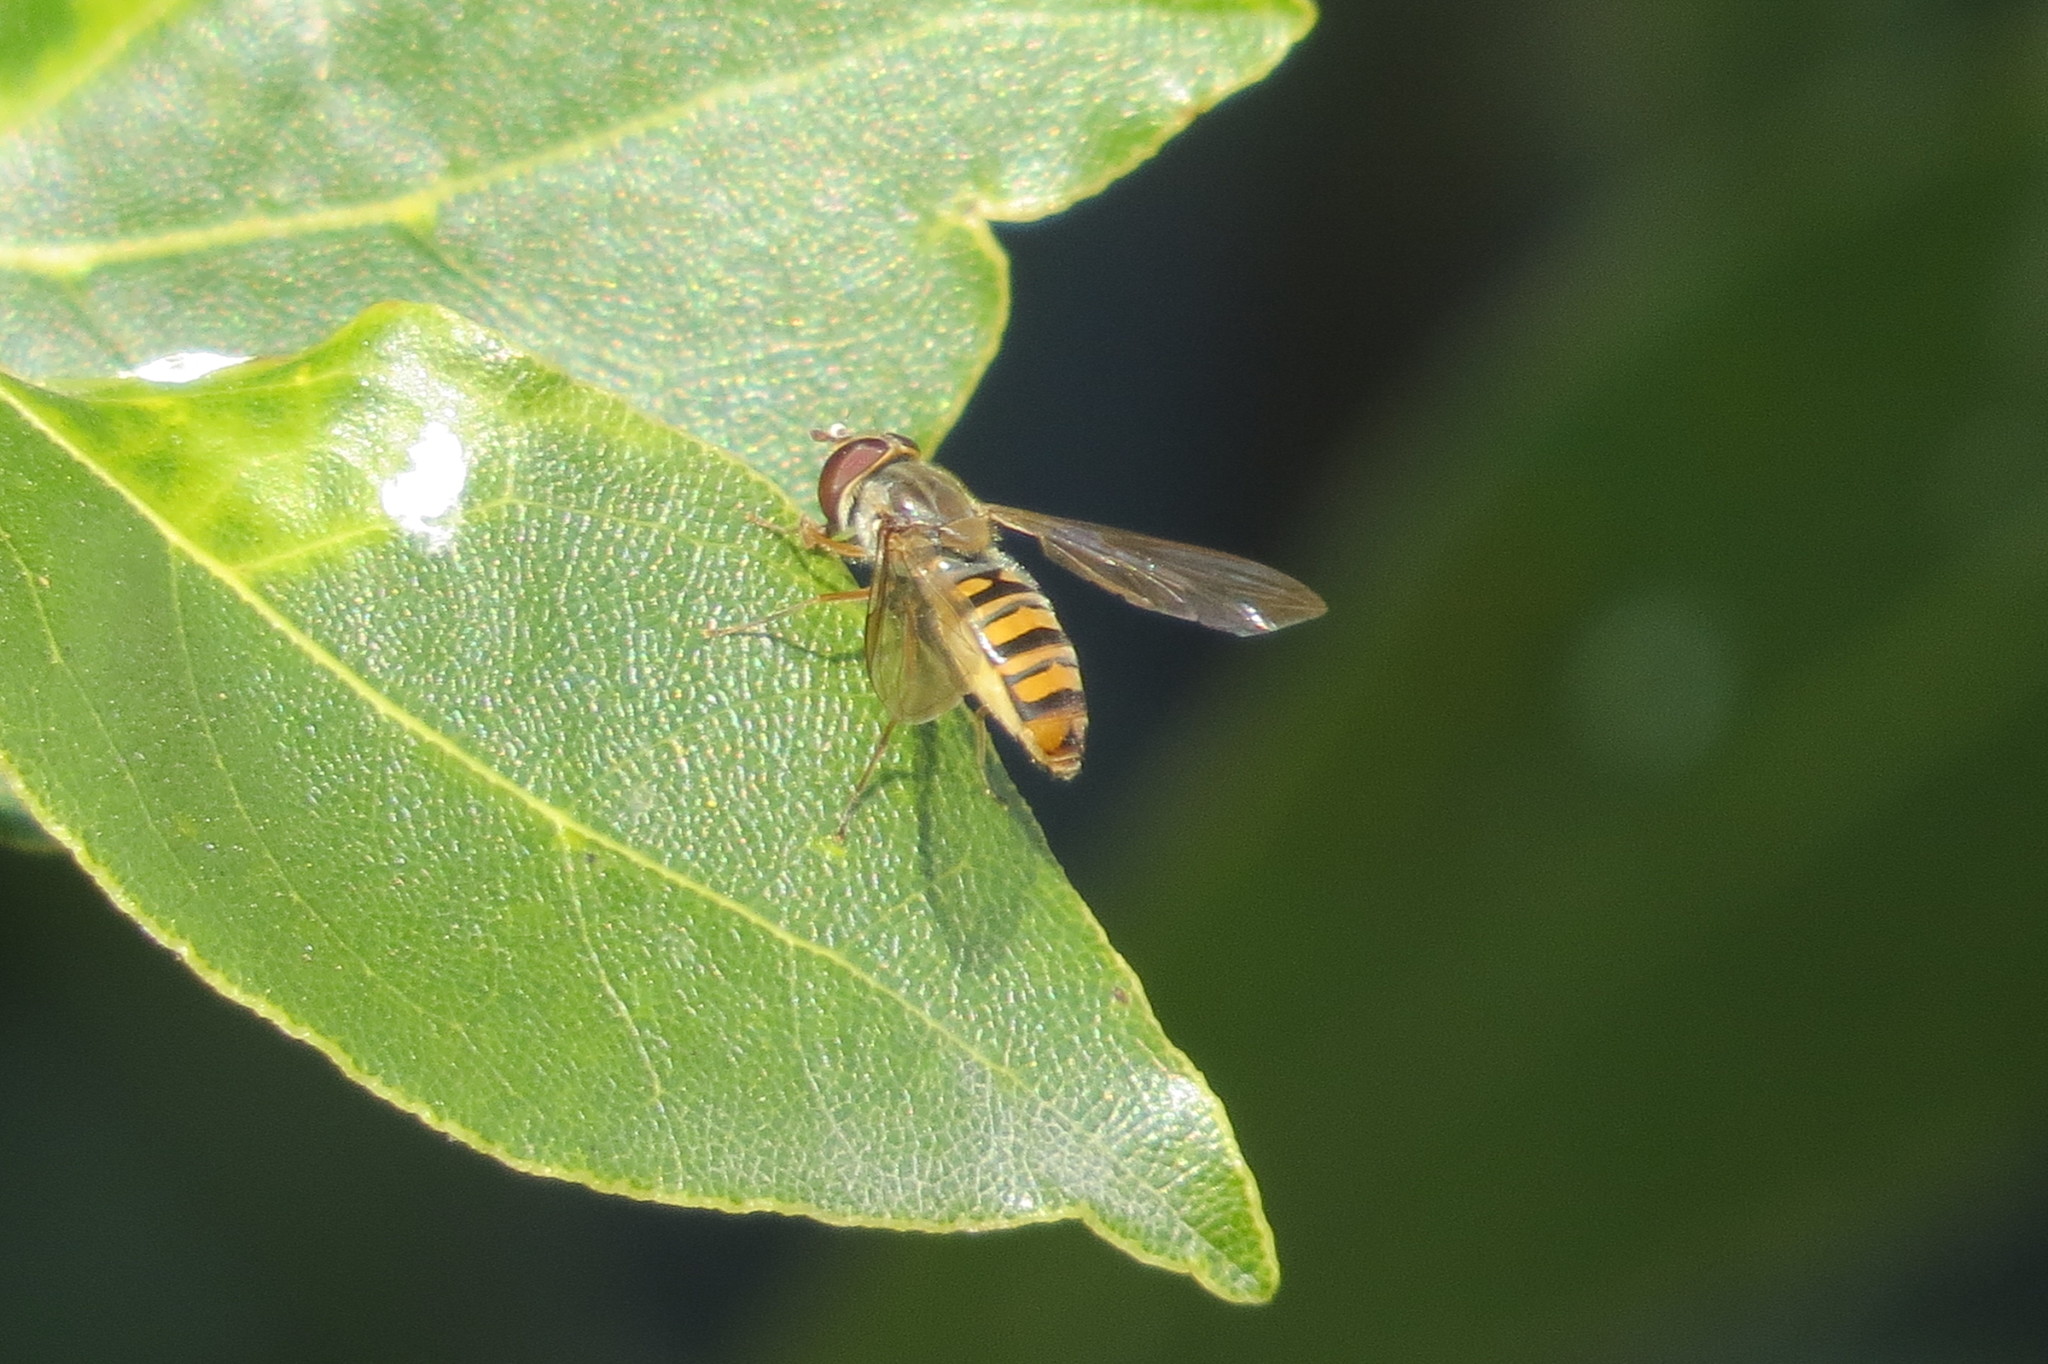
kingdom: Animalia
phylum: Arthropoda
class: Insecta
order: Diptera
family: Syrphidae
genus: Episyrphus
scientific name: Episyrphus balteatus
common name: Marmalade hoverfly
